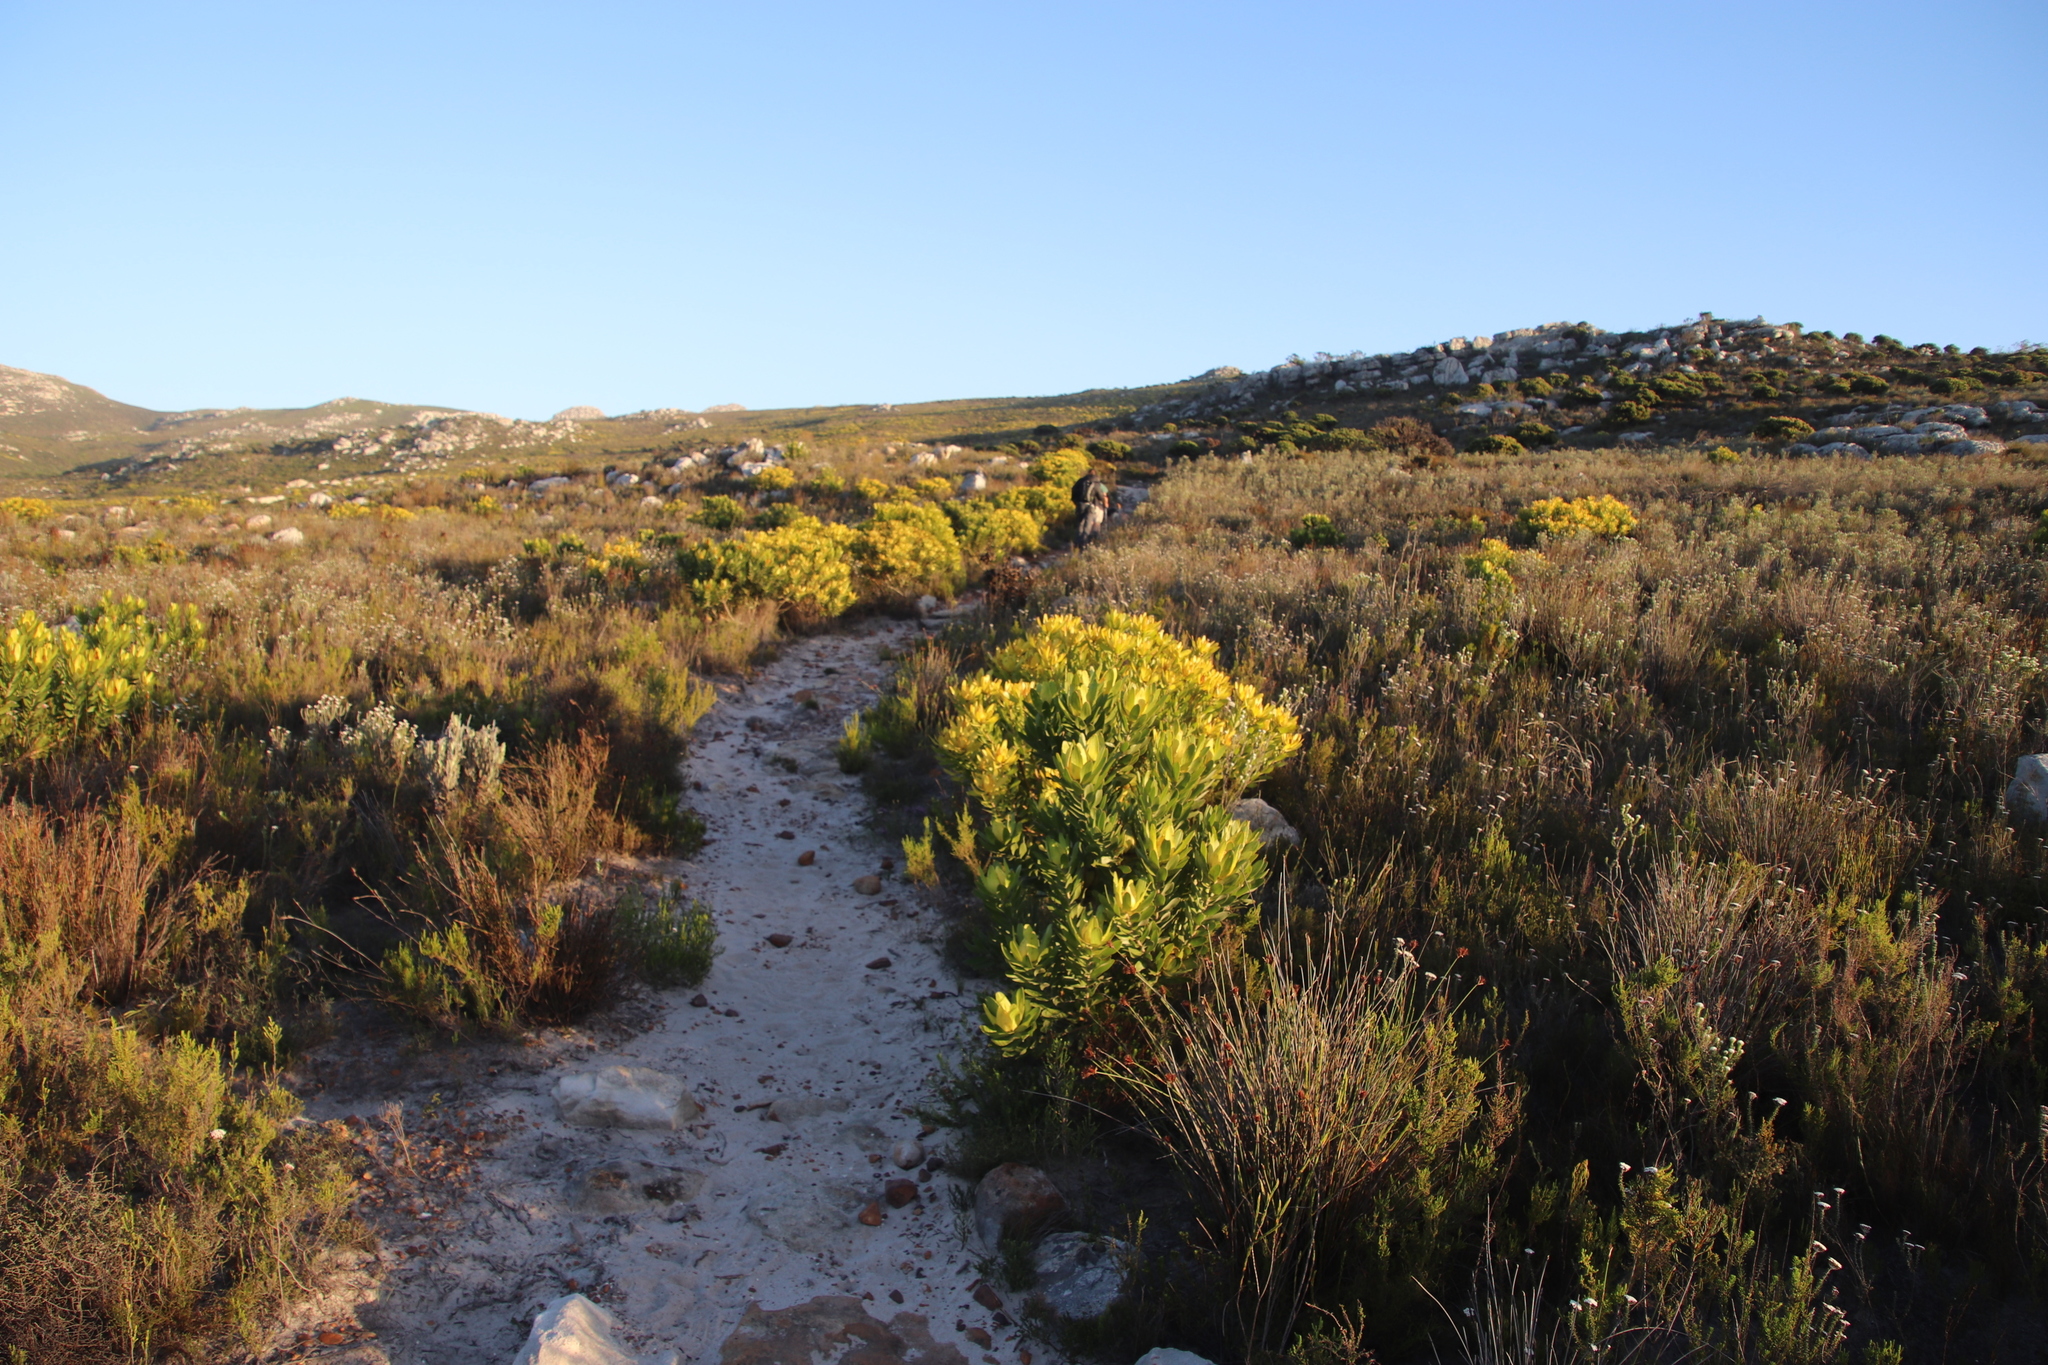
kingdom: Plantae
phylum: Tracheophyta
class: Magnoliopsida
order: Proteales
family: Proteaceae
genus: Leucadendron
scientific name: Leucadendron laureolum
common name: Golden sunshinebush
